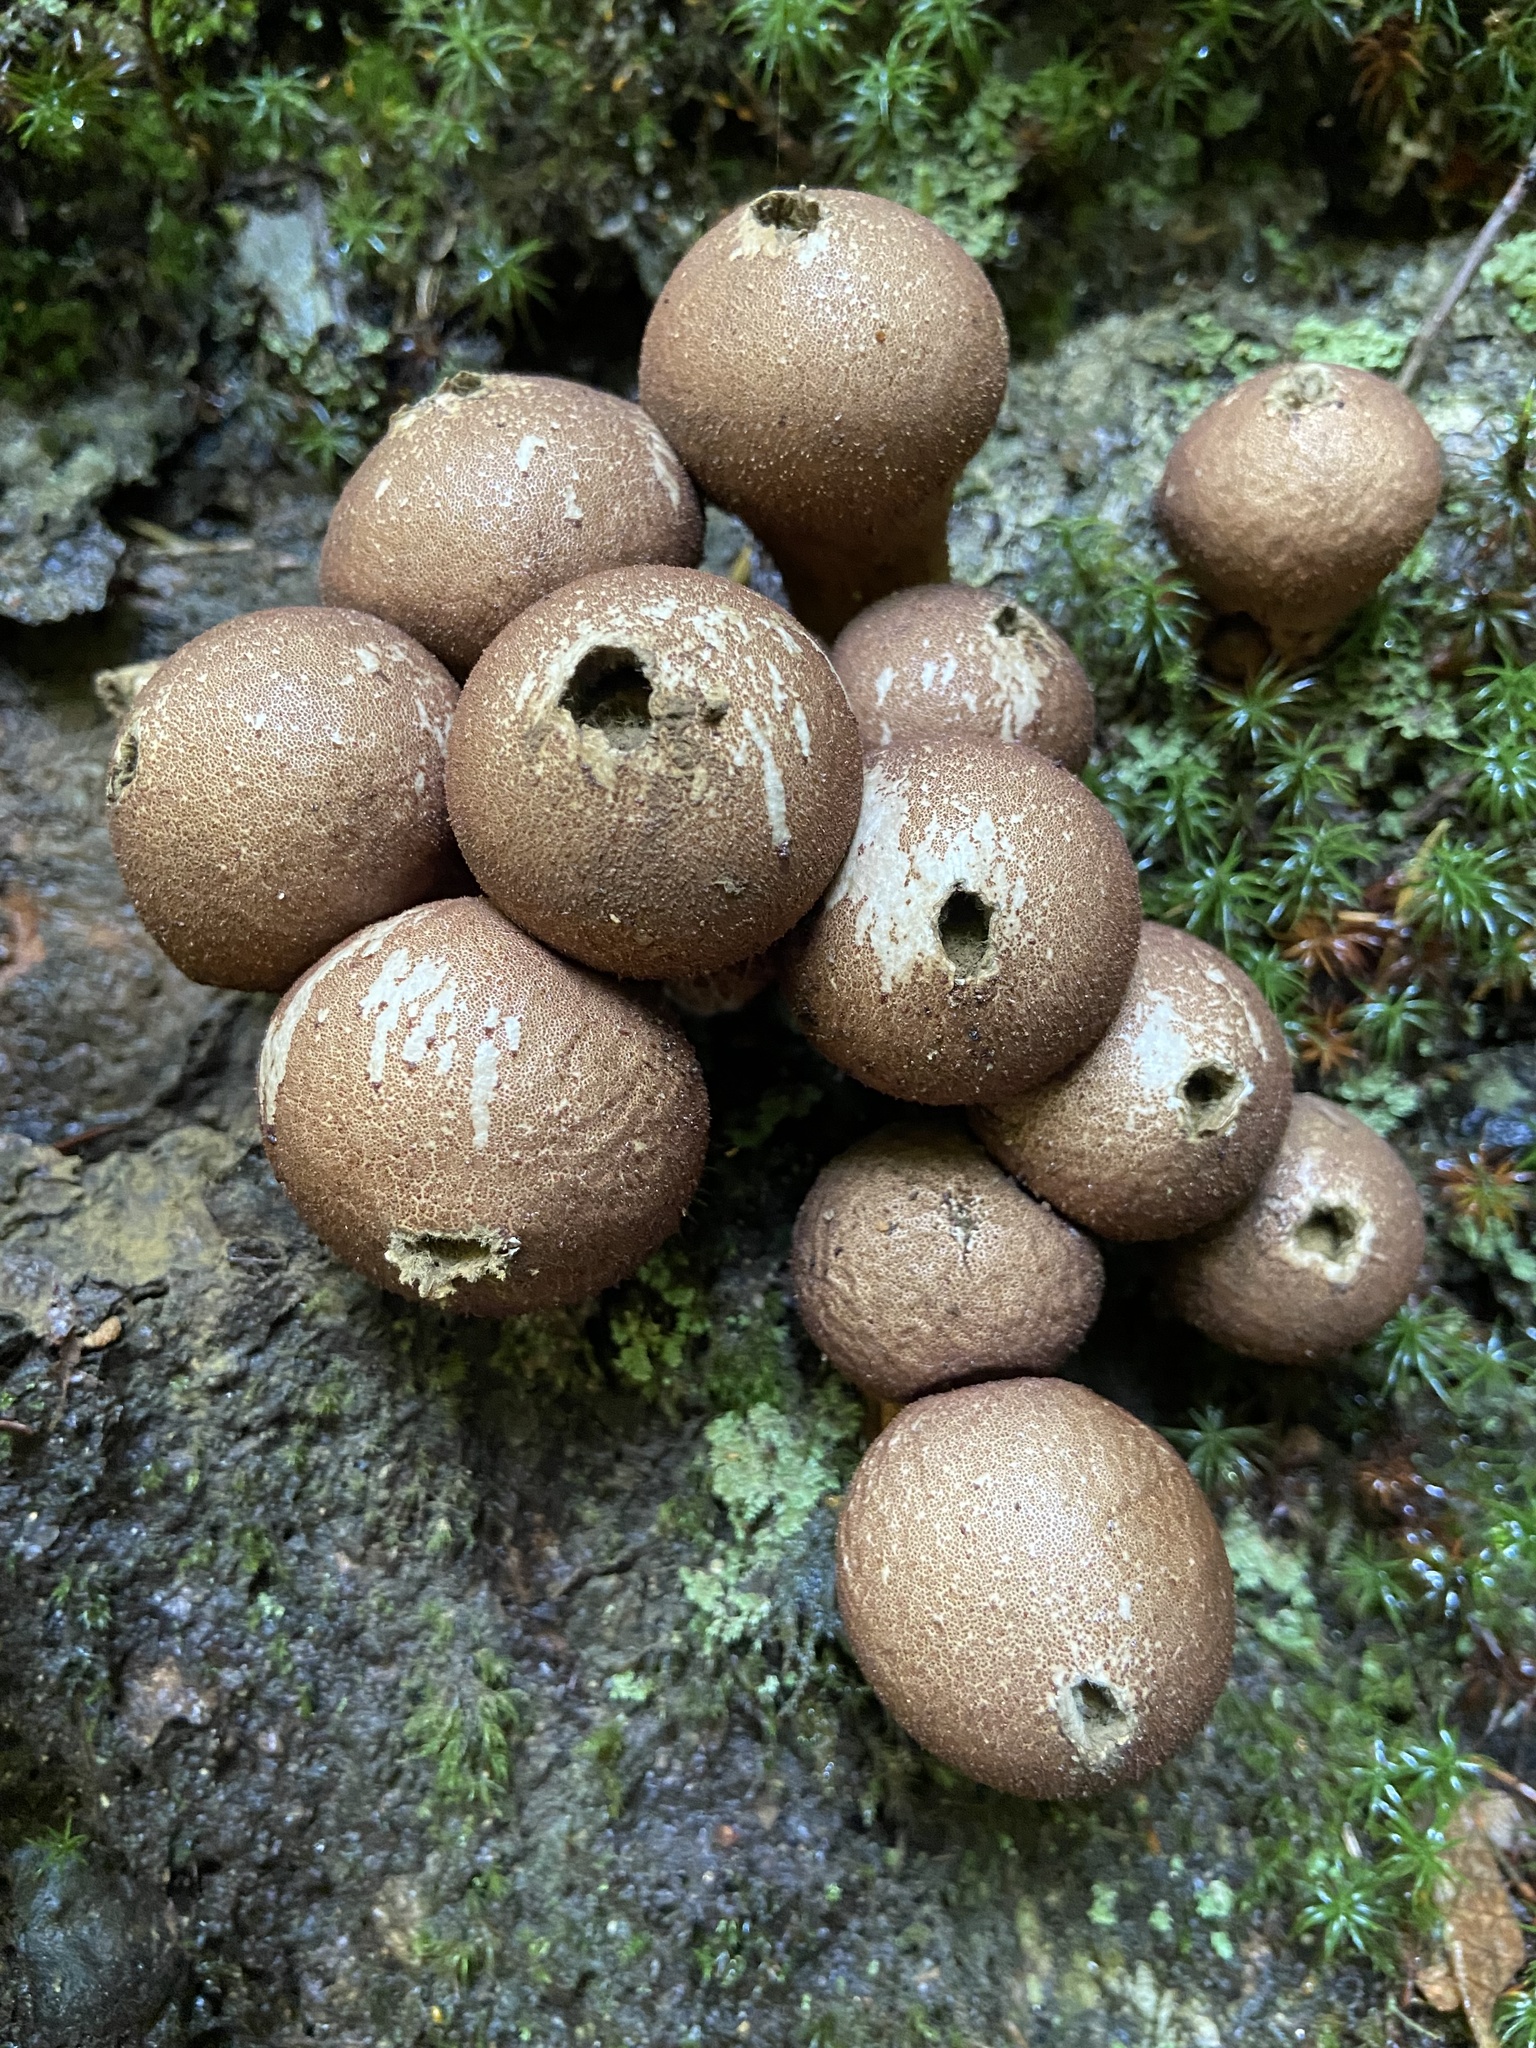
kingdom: Fungi
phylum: Basidiomycota
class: Agaricomycetes
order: Agaricales
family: Lycoperdaceae
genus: Apioperdon
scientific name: Apioperdon pyriforme
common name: Pear-shaped puffball
